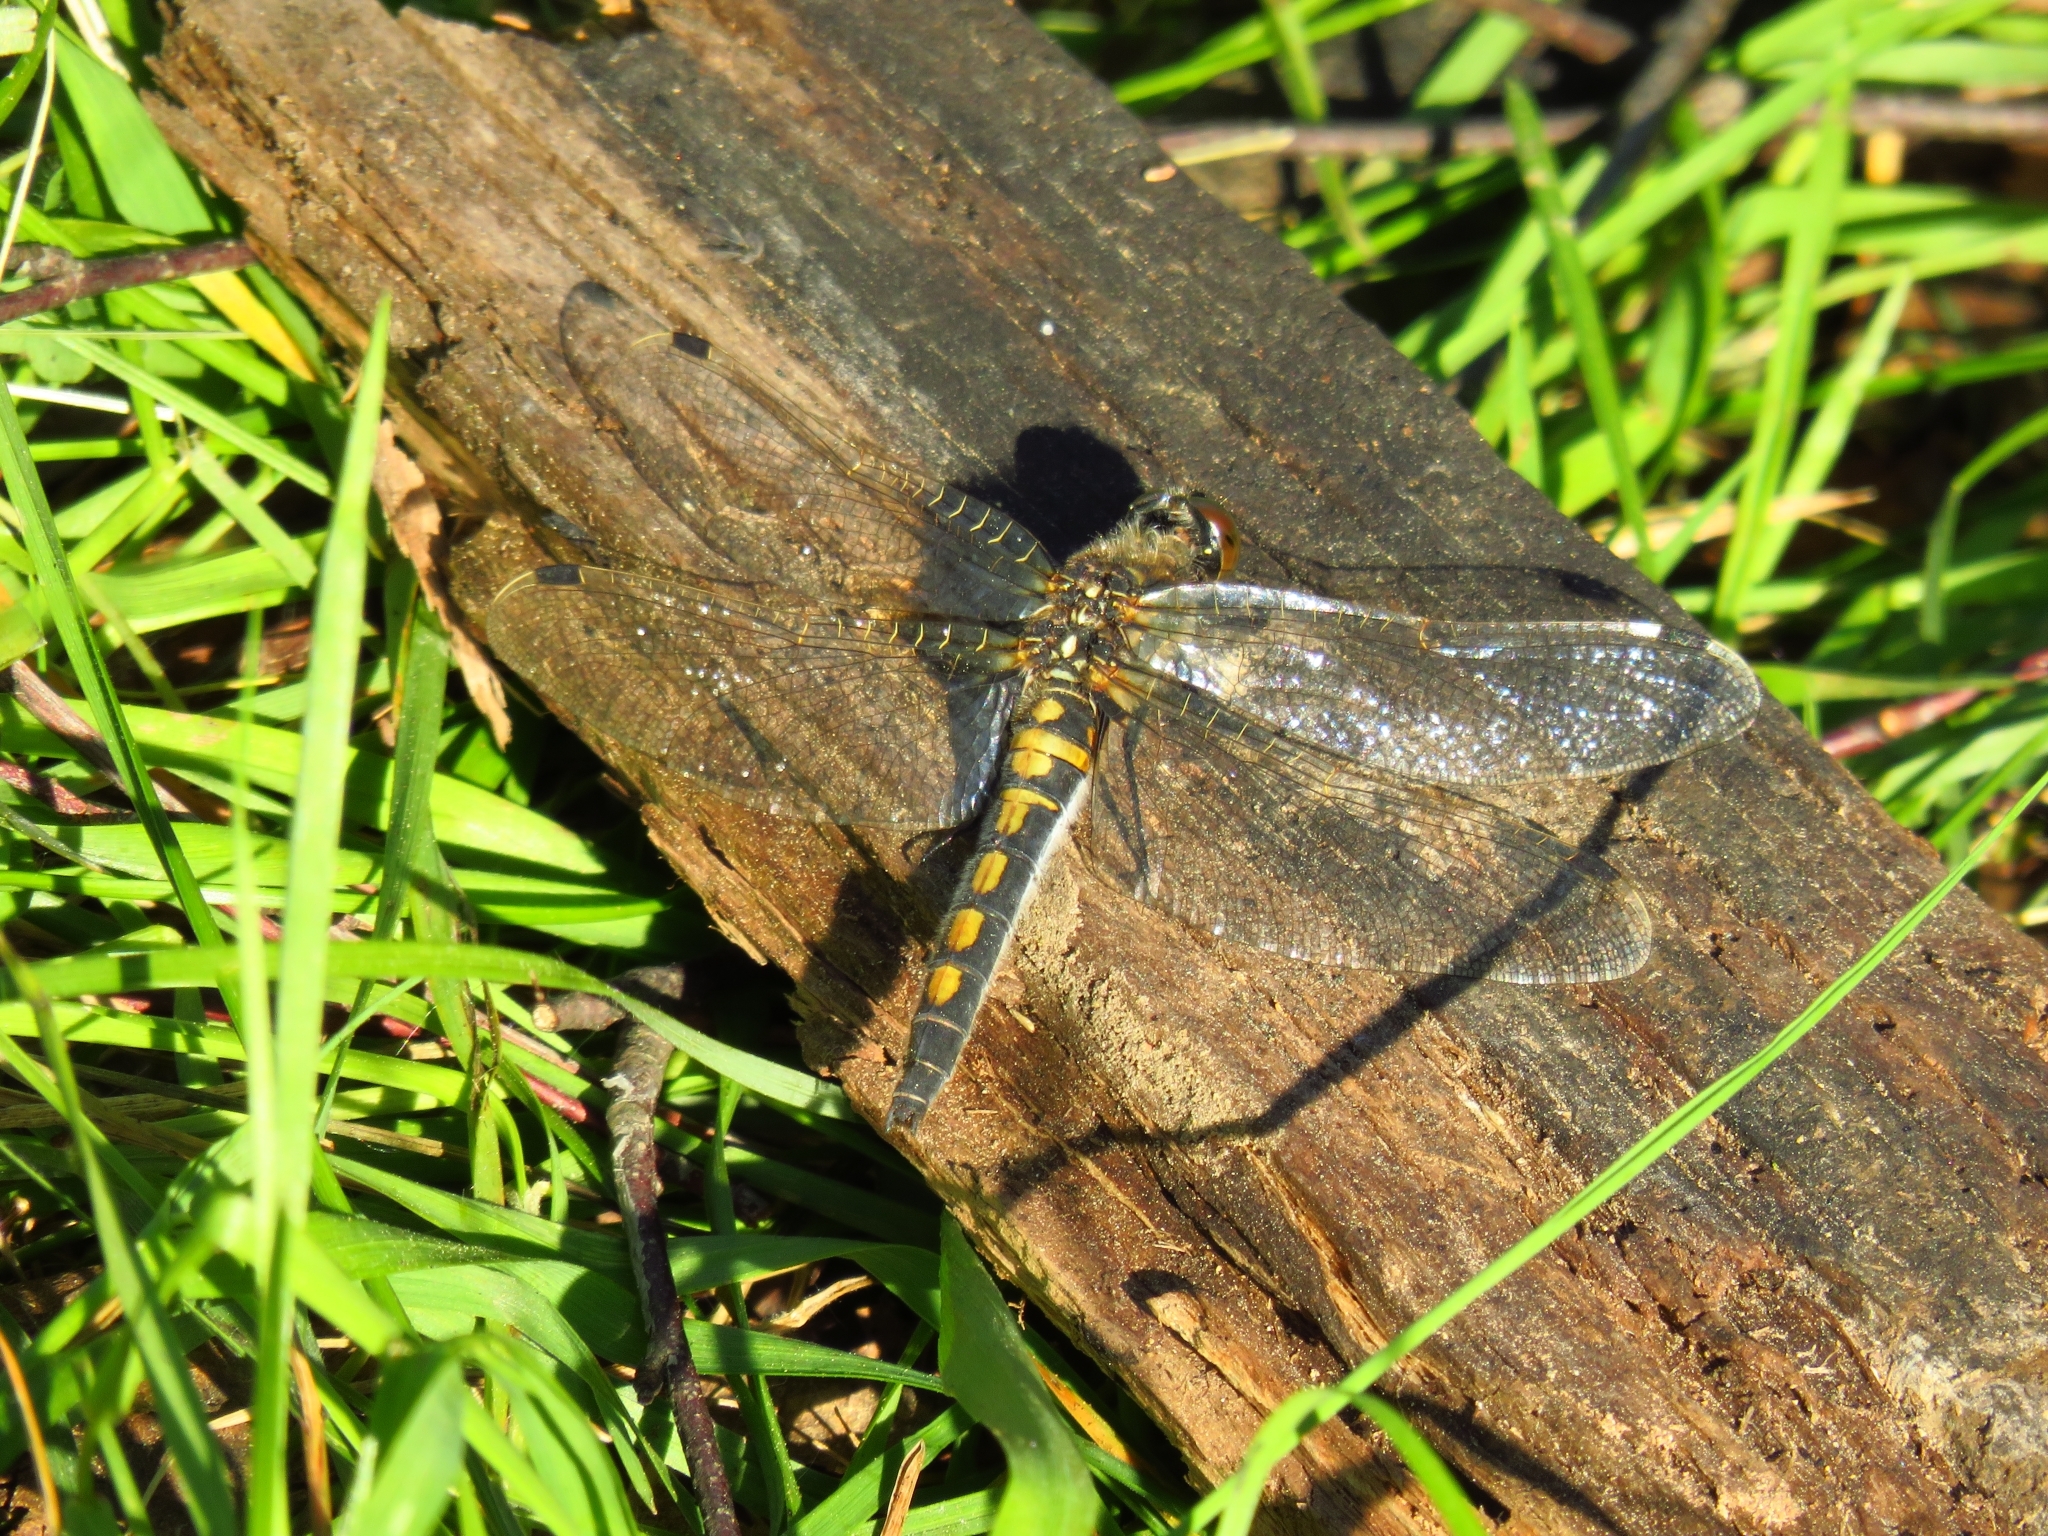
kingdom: Animalia
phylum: Arthropoda
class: Insecta
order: Odonata
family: Libellulidae
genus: Leucorrhinia
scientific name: Leucorrhinia rubicunda
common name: Ruby whiteface
